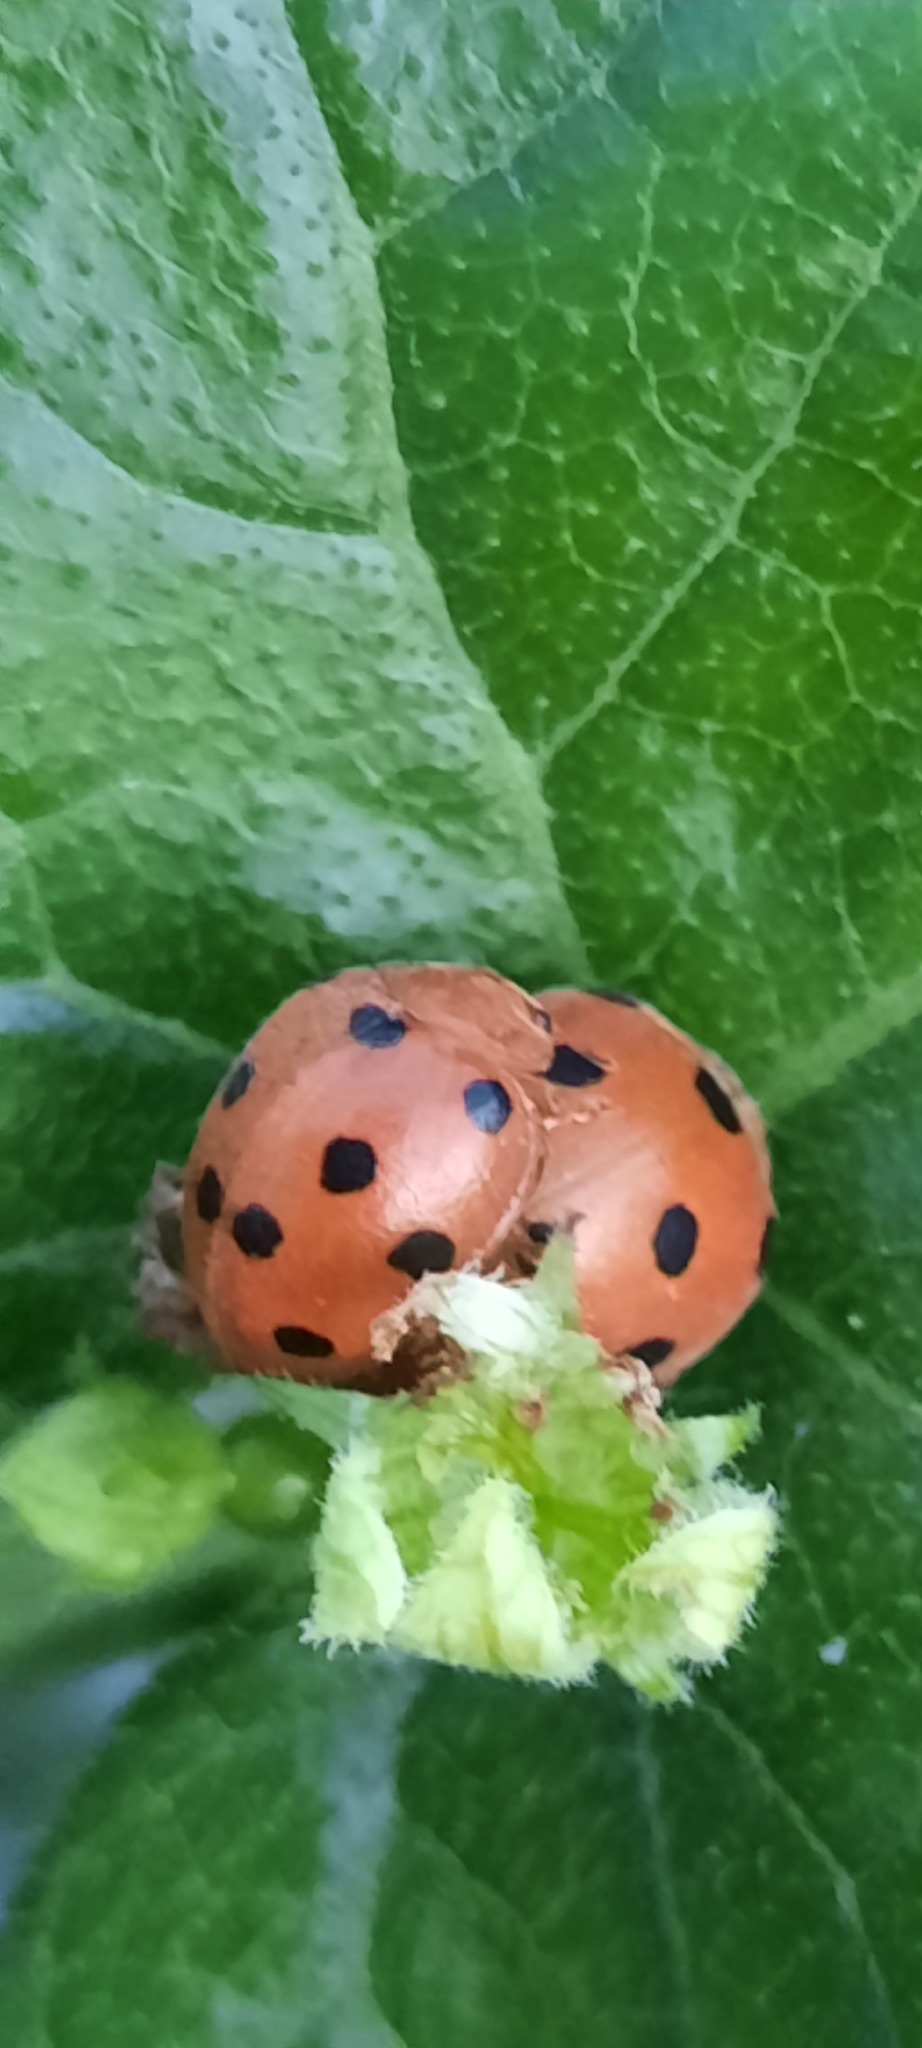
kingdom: Animalia
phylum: Arthropoda
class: Insecta
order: Coleoptera
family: Coccinellidae
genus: Henosepilachna
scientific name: Henosepilachna argus
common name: Bryony ladybird
